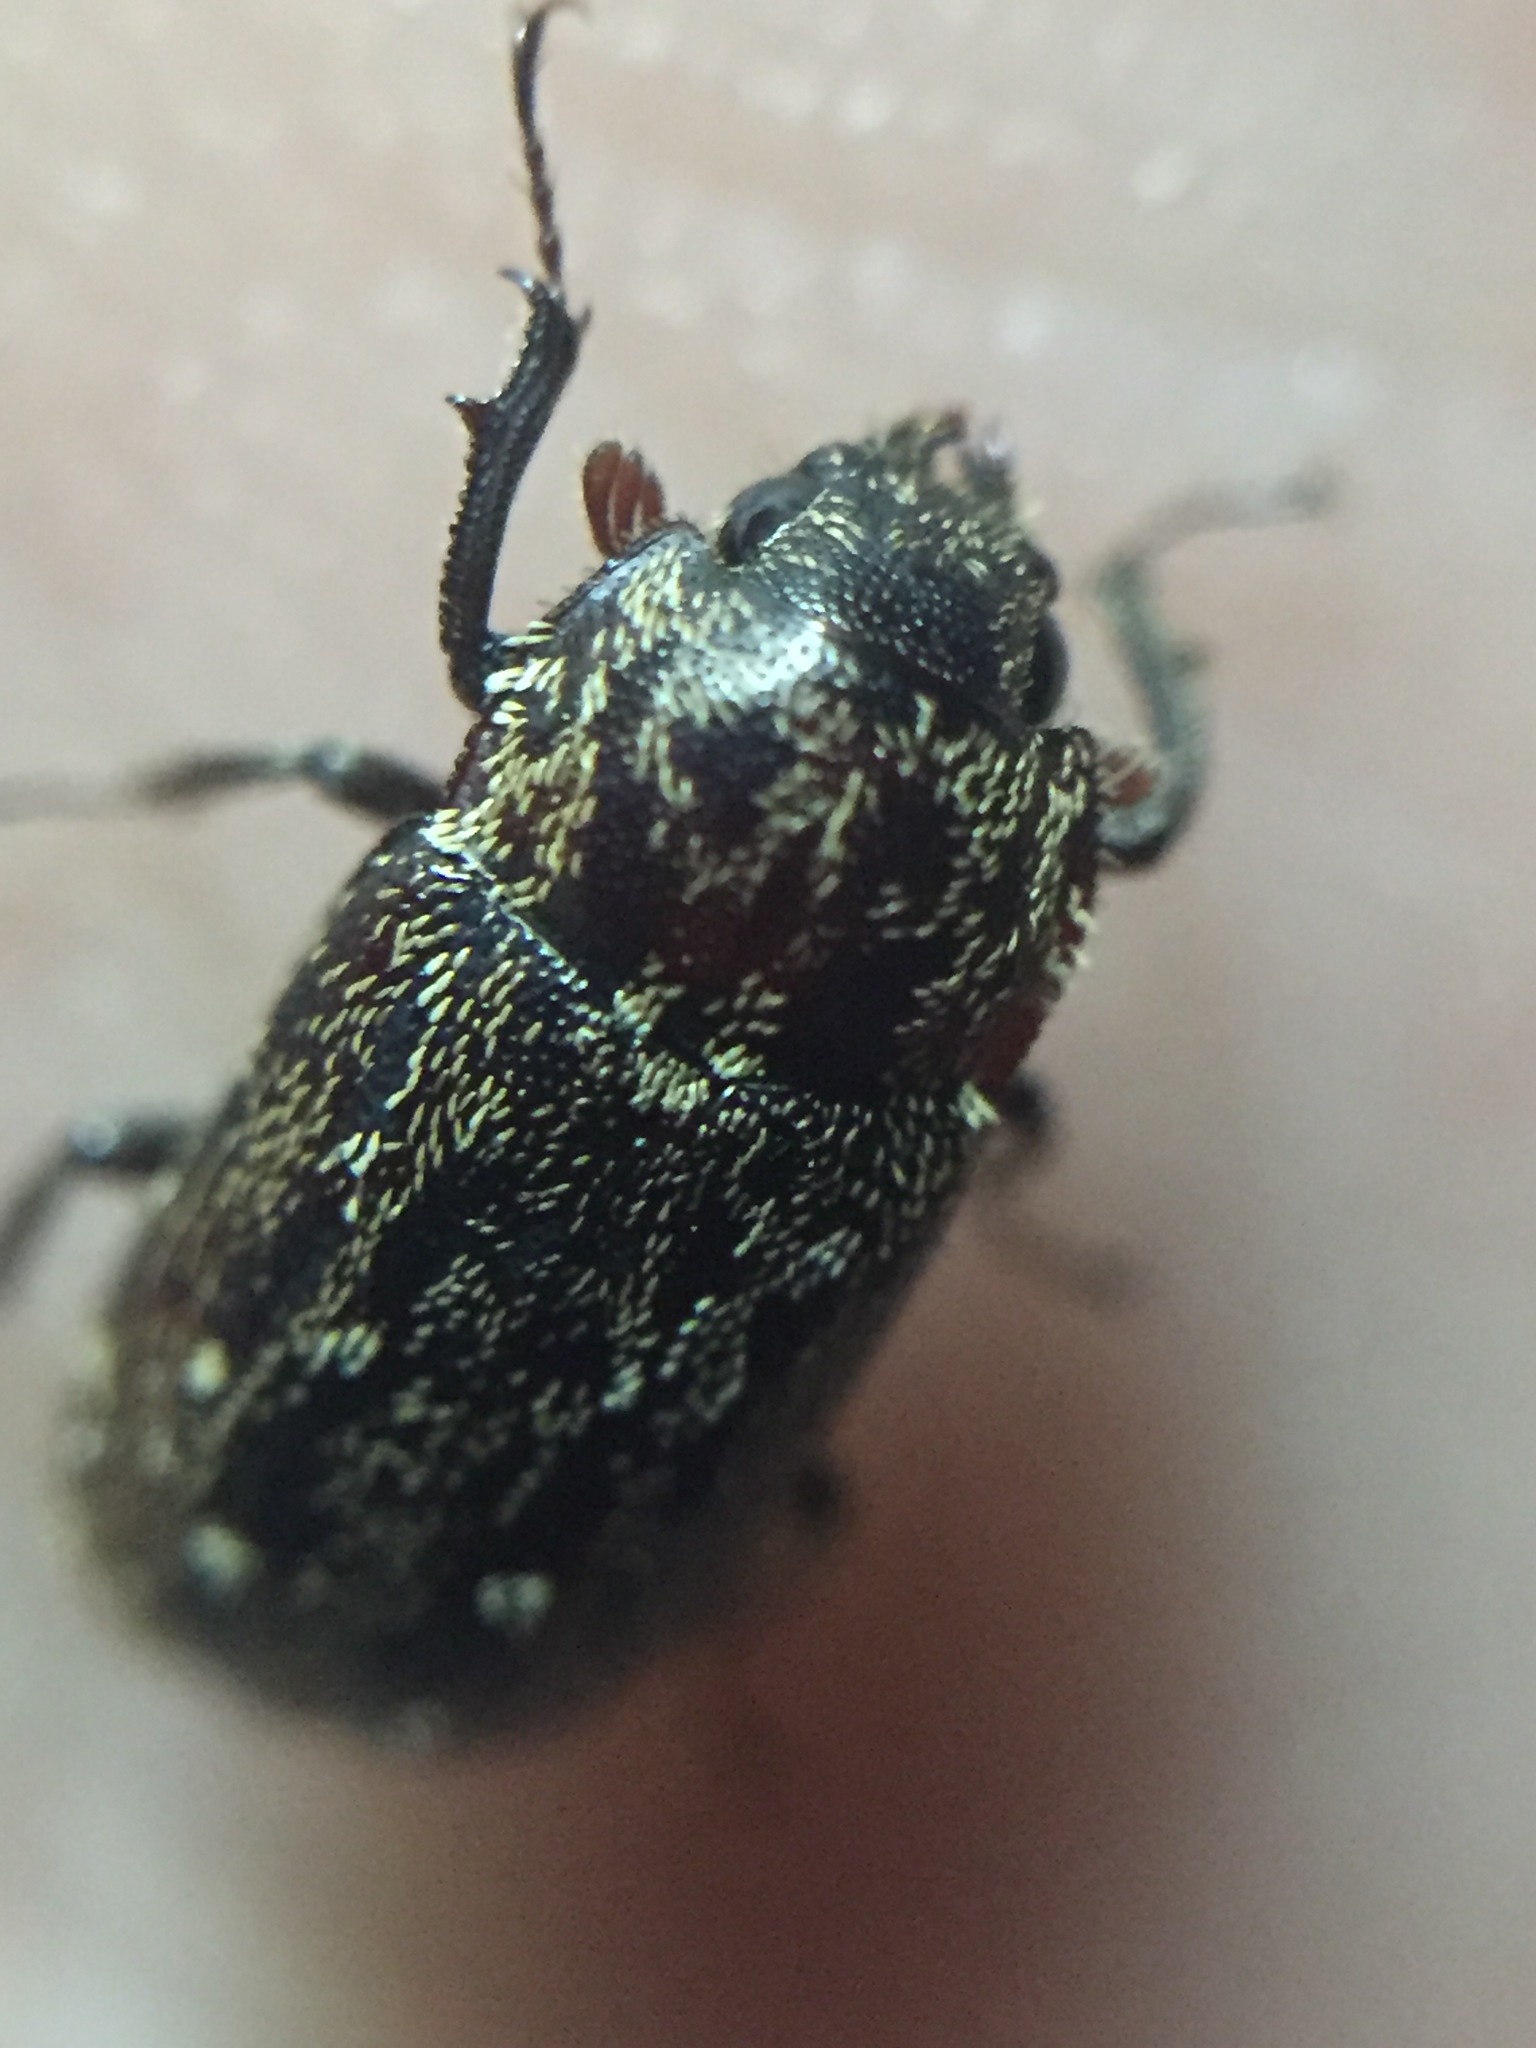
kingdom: Animalia
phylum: Arthropoda
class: Insecta
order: Coleoptera
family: Lucanidae
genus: Mitophyllus
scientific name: Mitophyllus arcuatus
